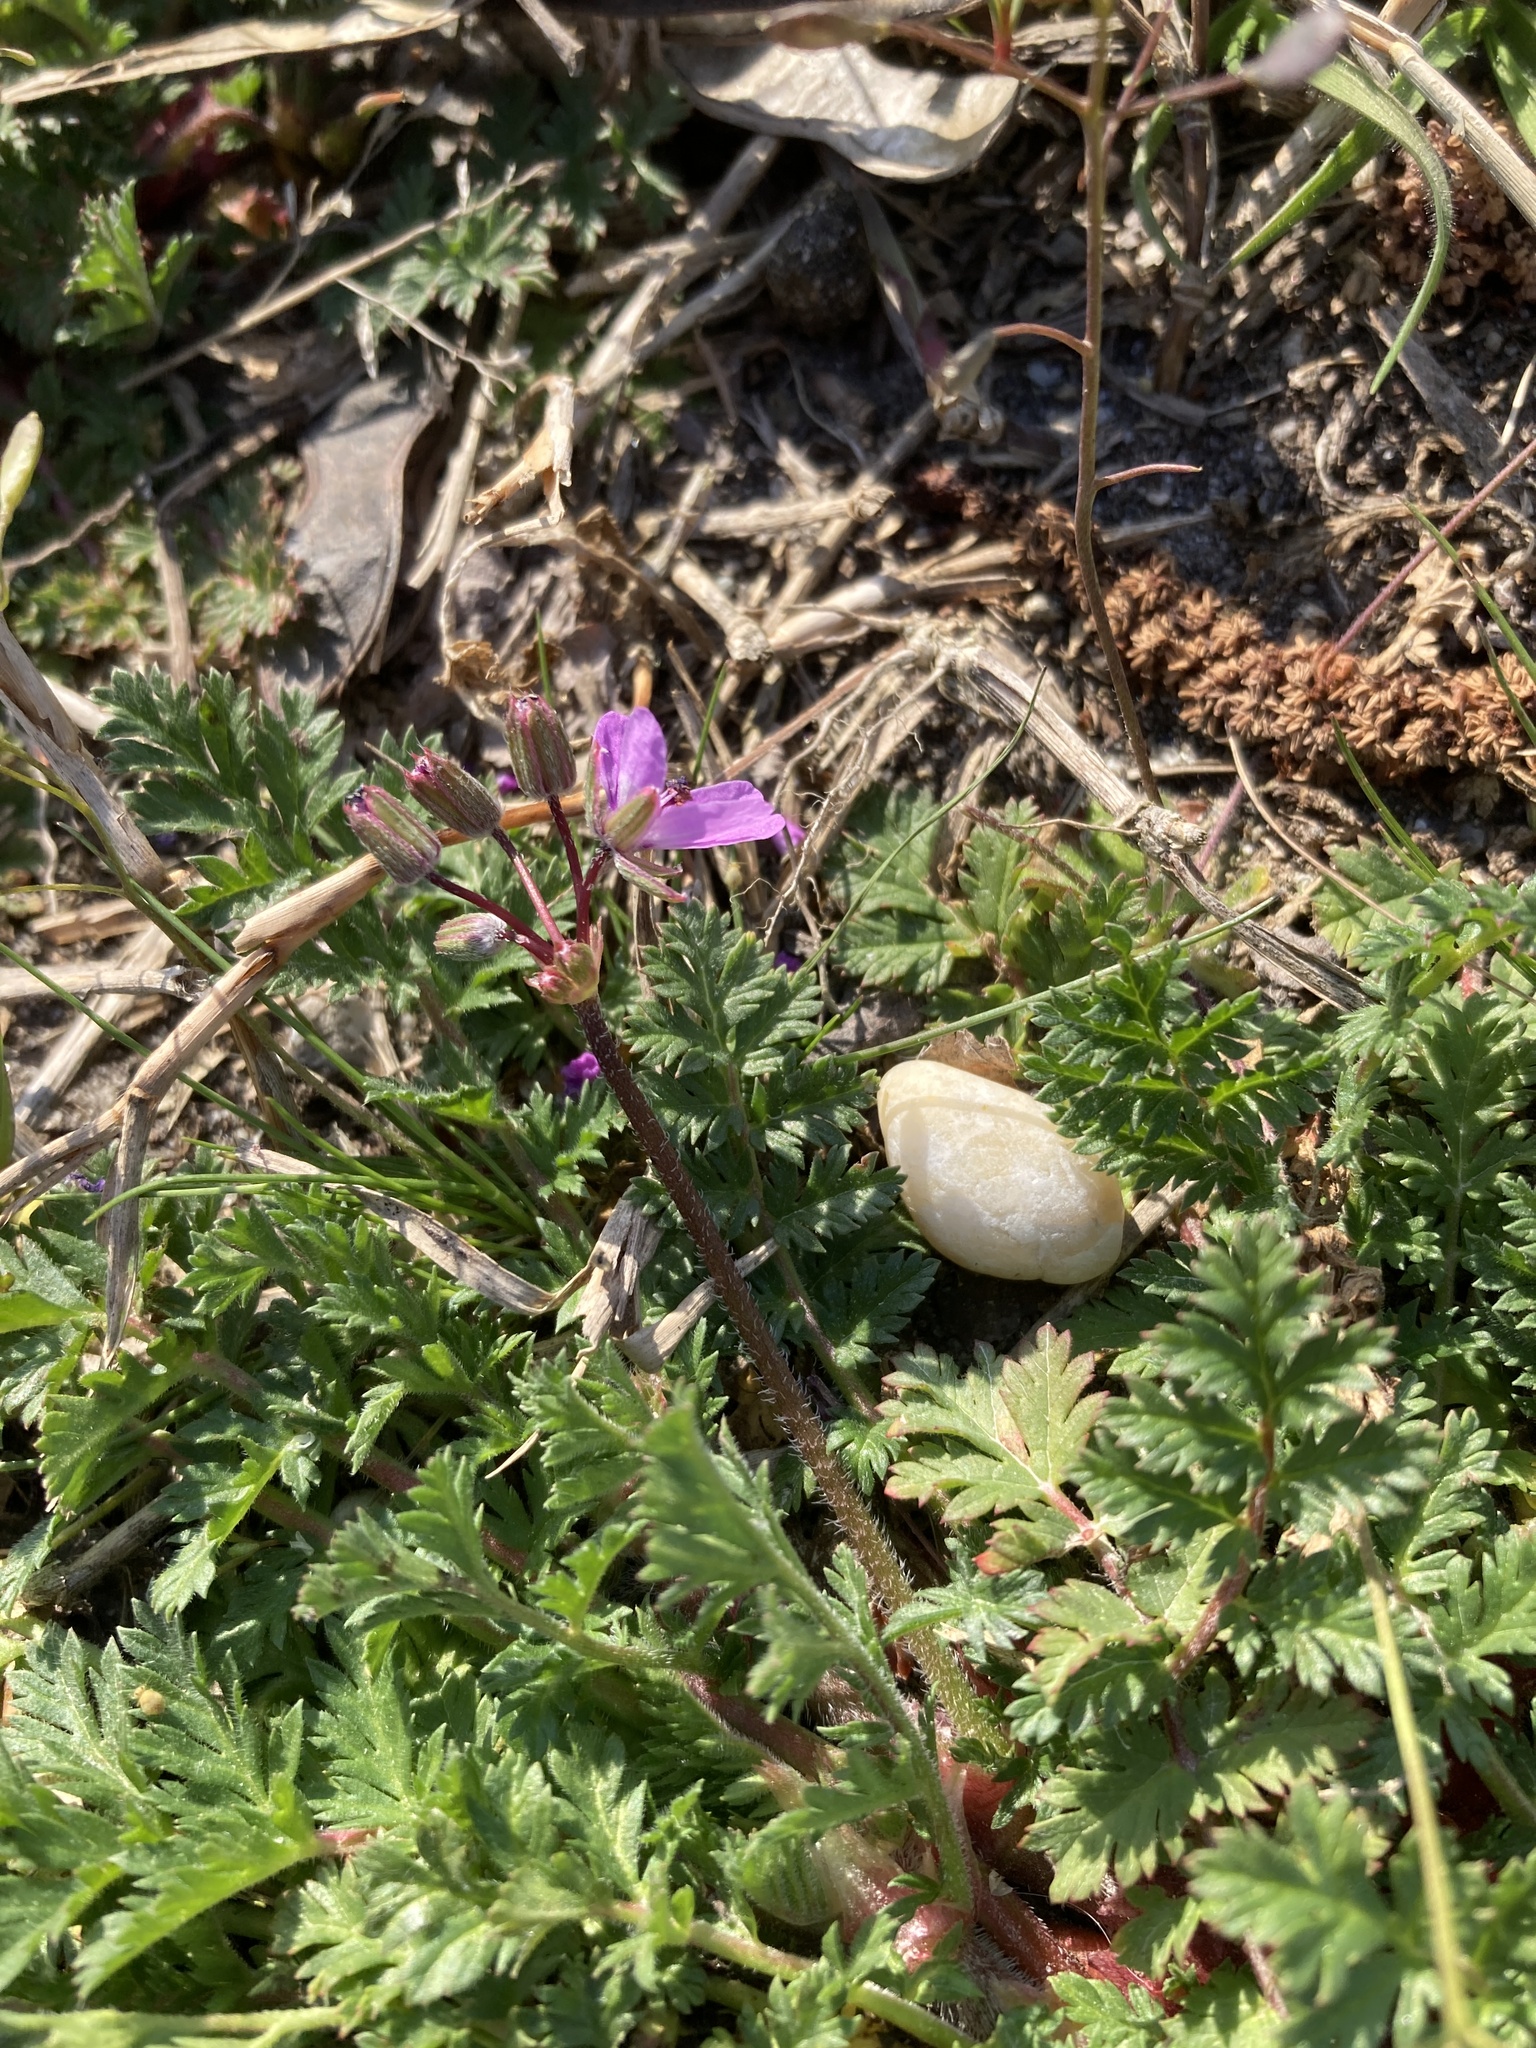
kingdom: Plantae
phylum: Tracheophyta
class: Magnoliopsida
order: Geraniales
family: Geraniaceae
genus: Erodium
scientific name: Erodium cicutarium
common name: Common stork's-bill
